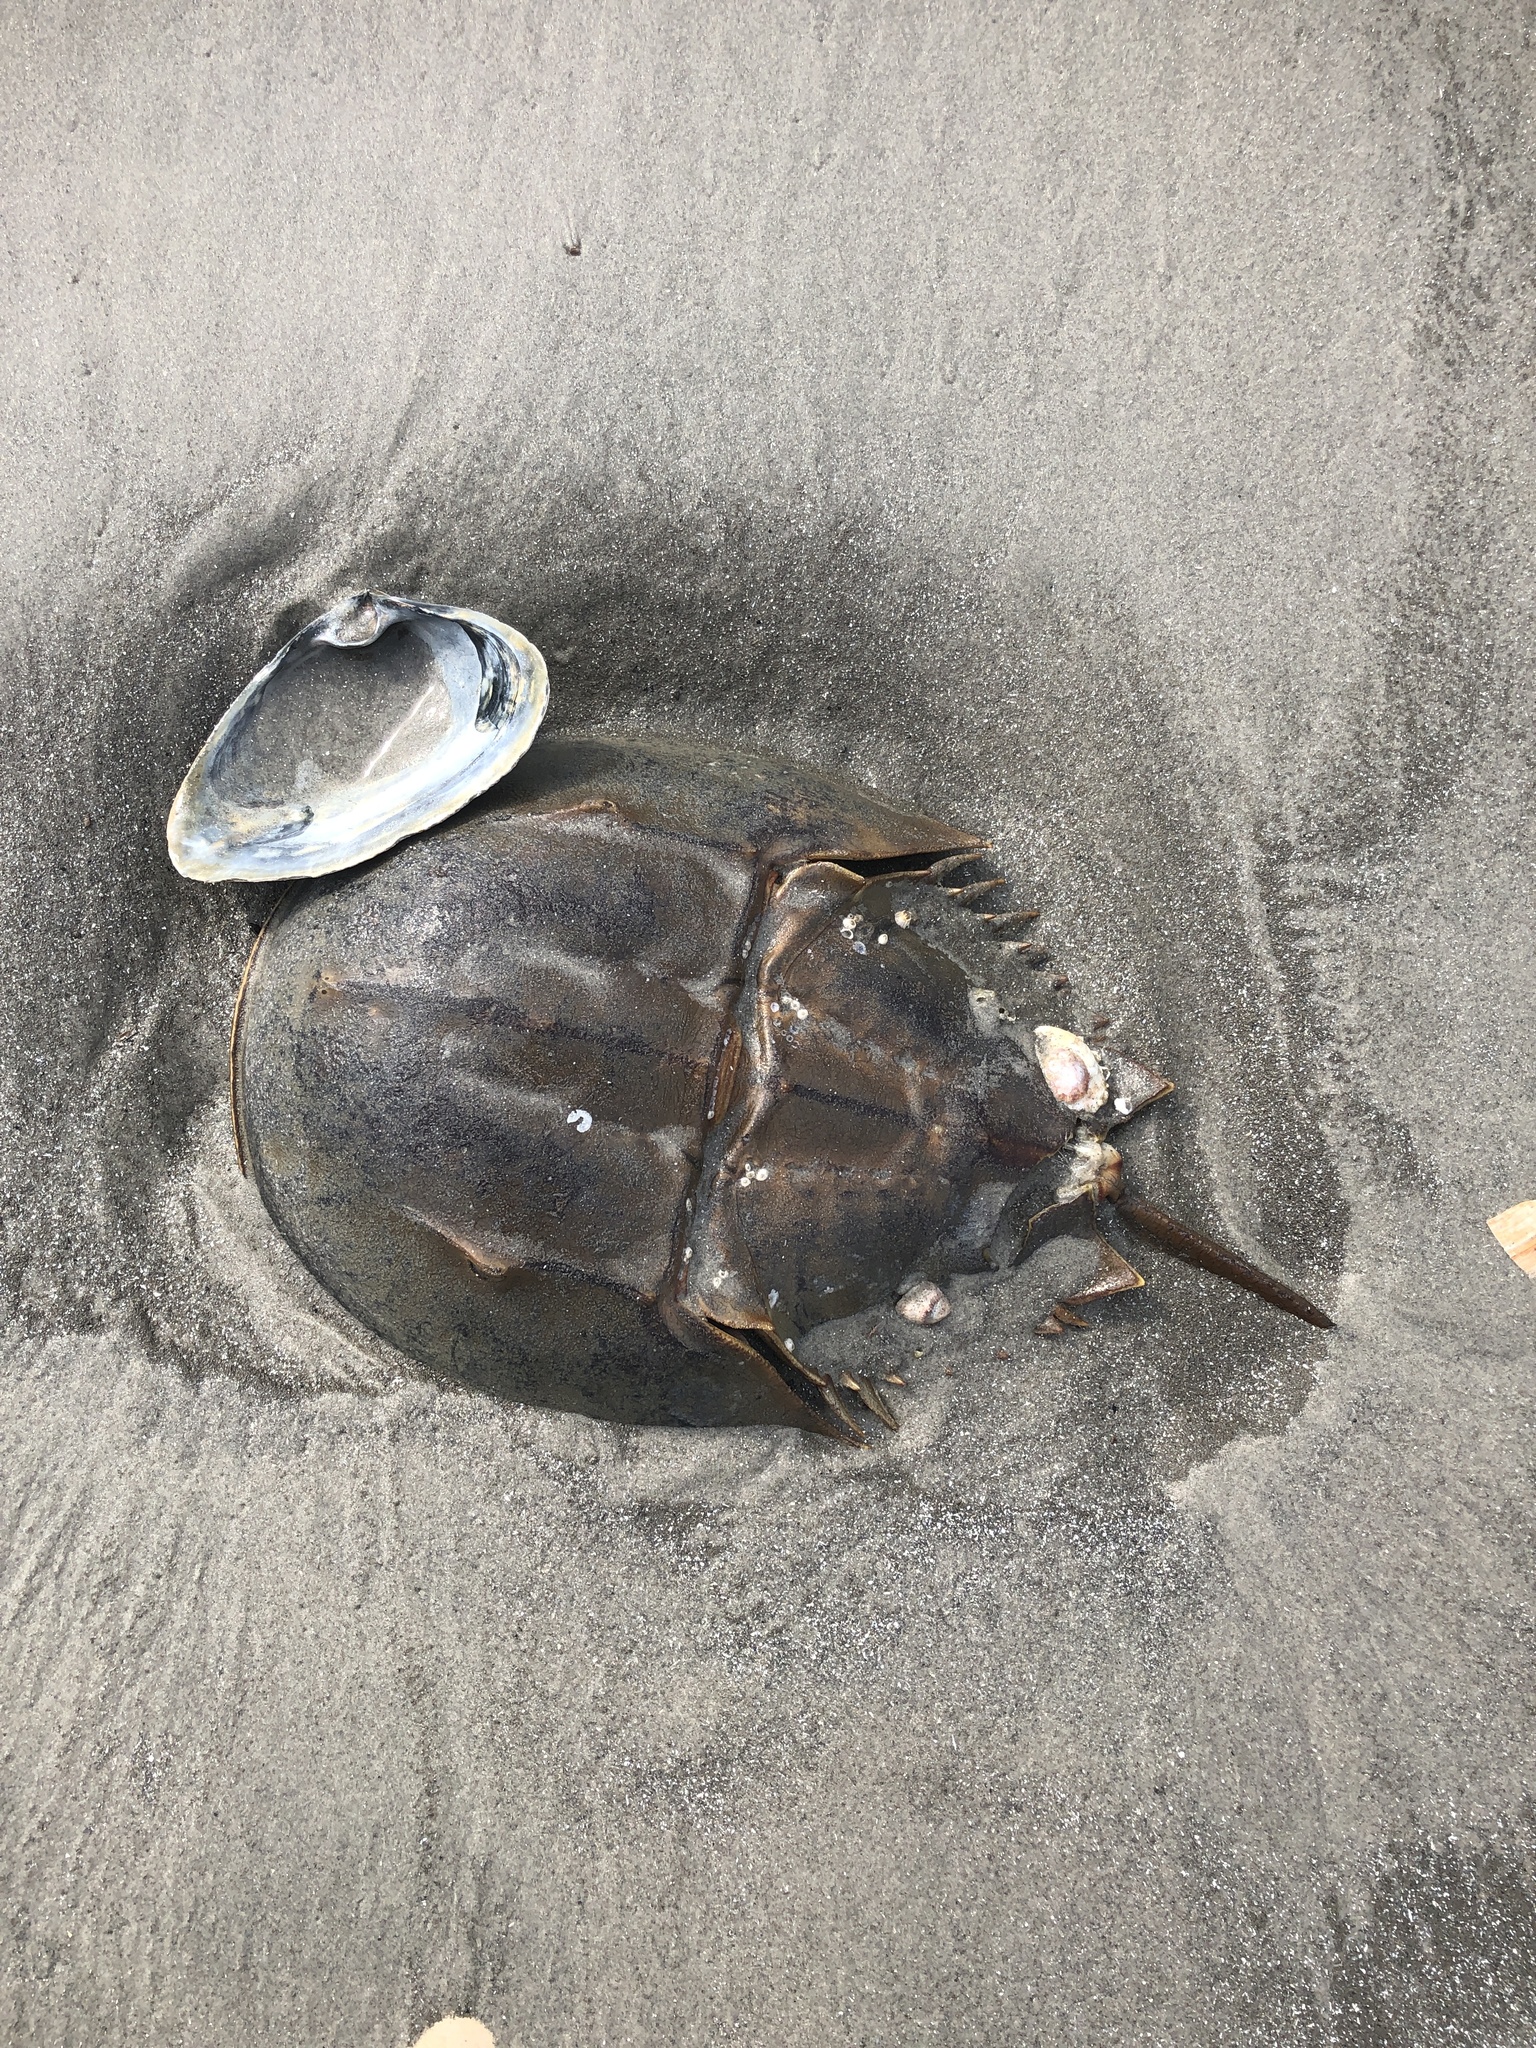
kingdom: Animalia
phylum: Arthropoda
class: Merostomata
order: Xiphosurida
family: Limulidae
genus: Limulus
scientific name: Limulus polyphemus
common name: Horseshoe crab
